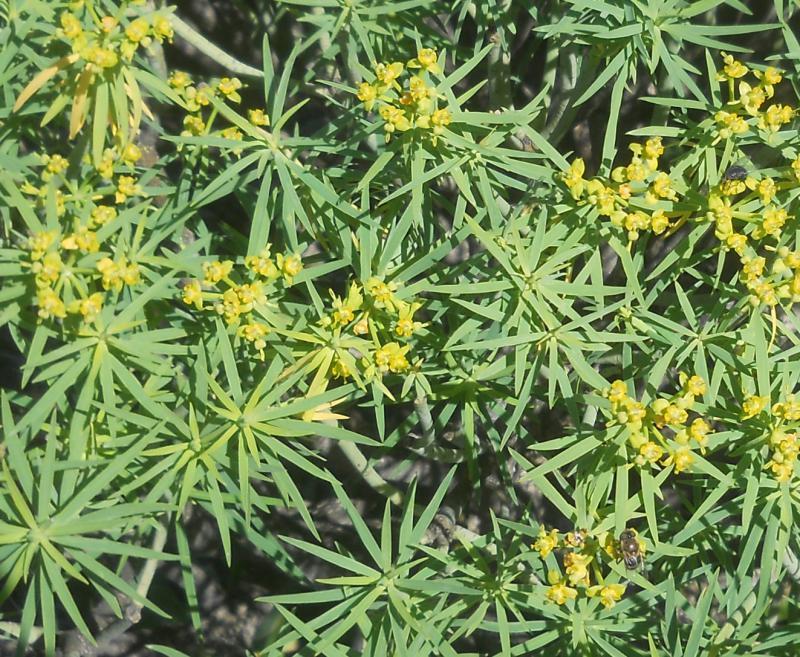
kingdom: Plantae
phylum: Tracheophyta
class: Magnoliopsida
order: Malpighiales
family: Euphorbiaceae
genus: Euphorbia
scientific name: Euphorbia lamarckii
